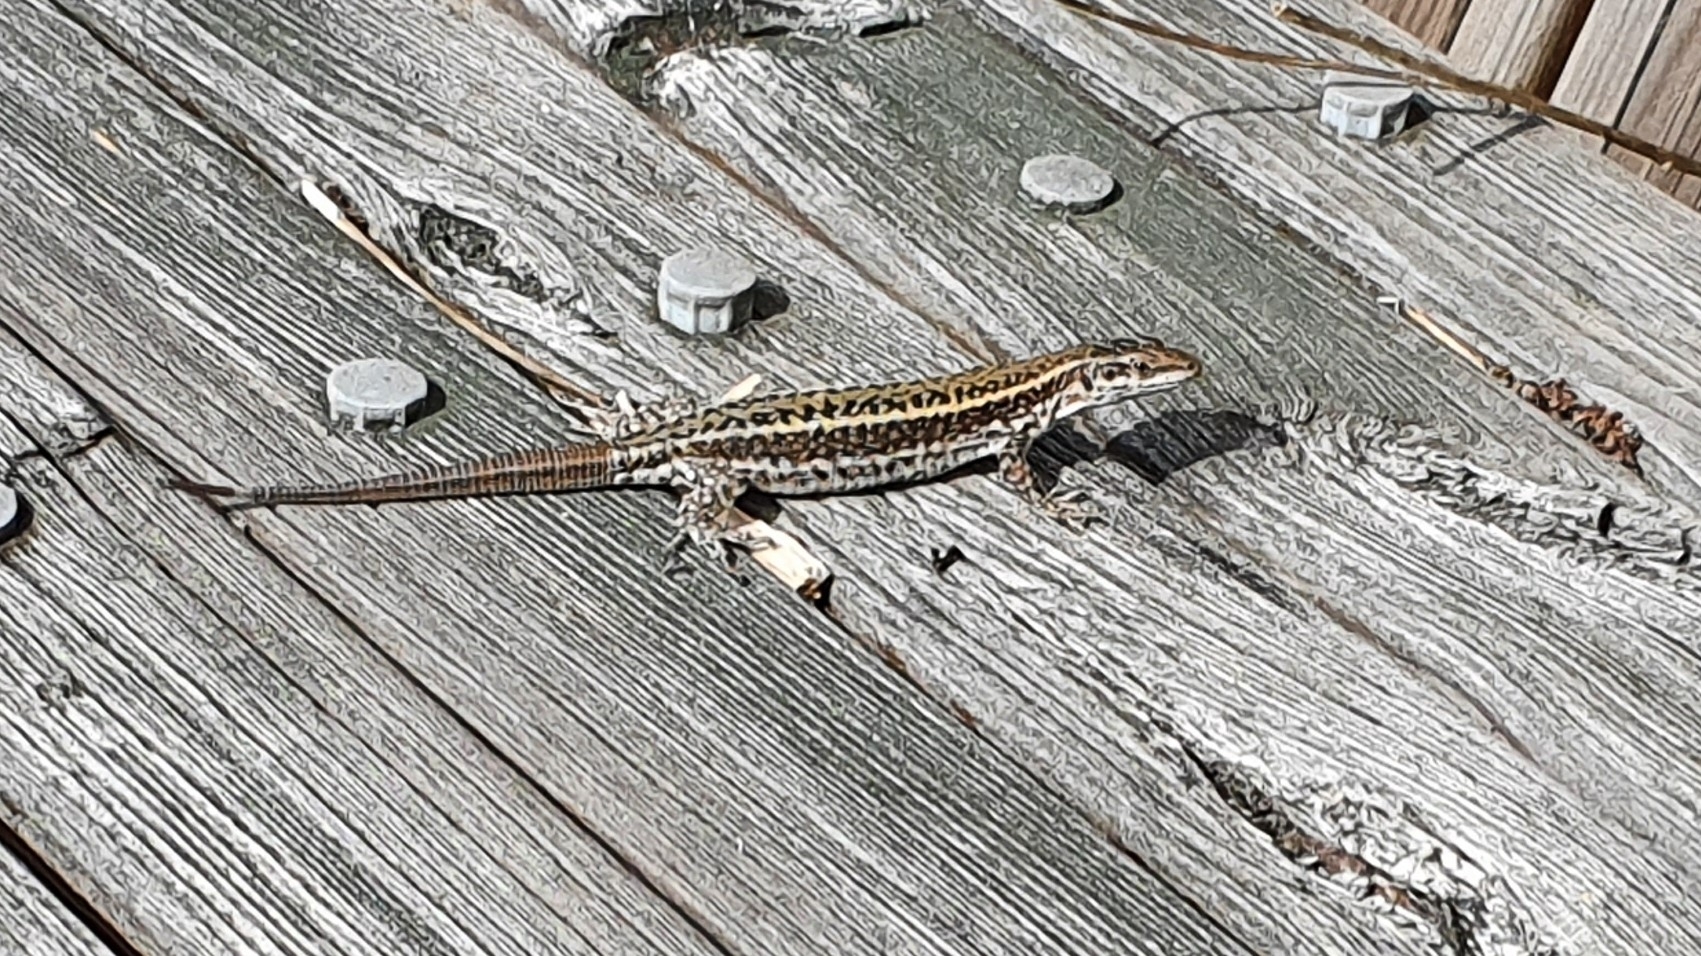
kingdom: Animalia
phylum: Chordata
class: Squamata
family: Lacertidae
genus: Podarcis
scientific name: Podarcis bocagei
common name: Bocage's wall lizard
